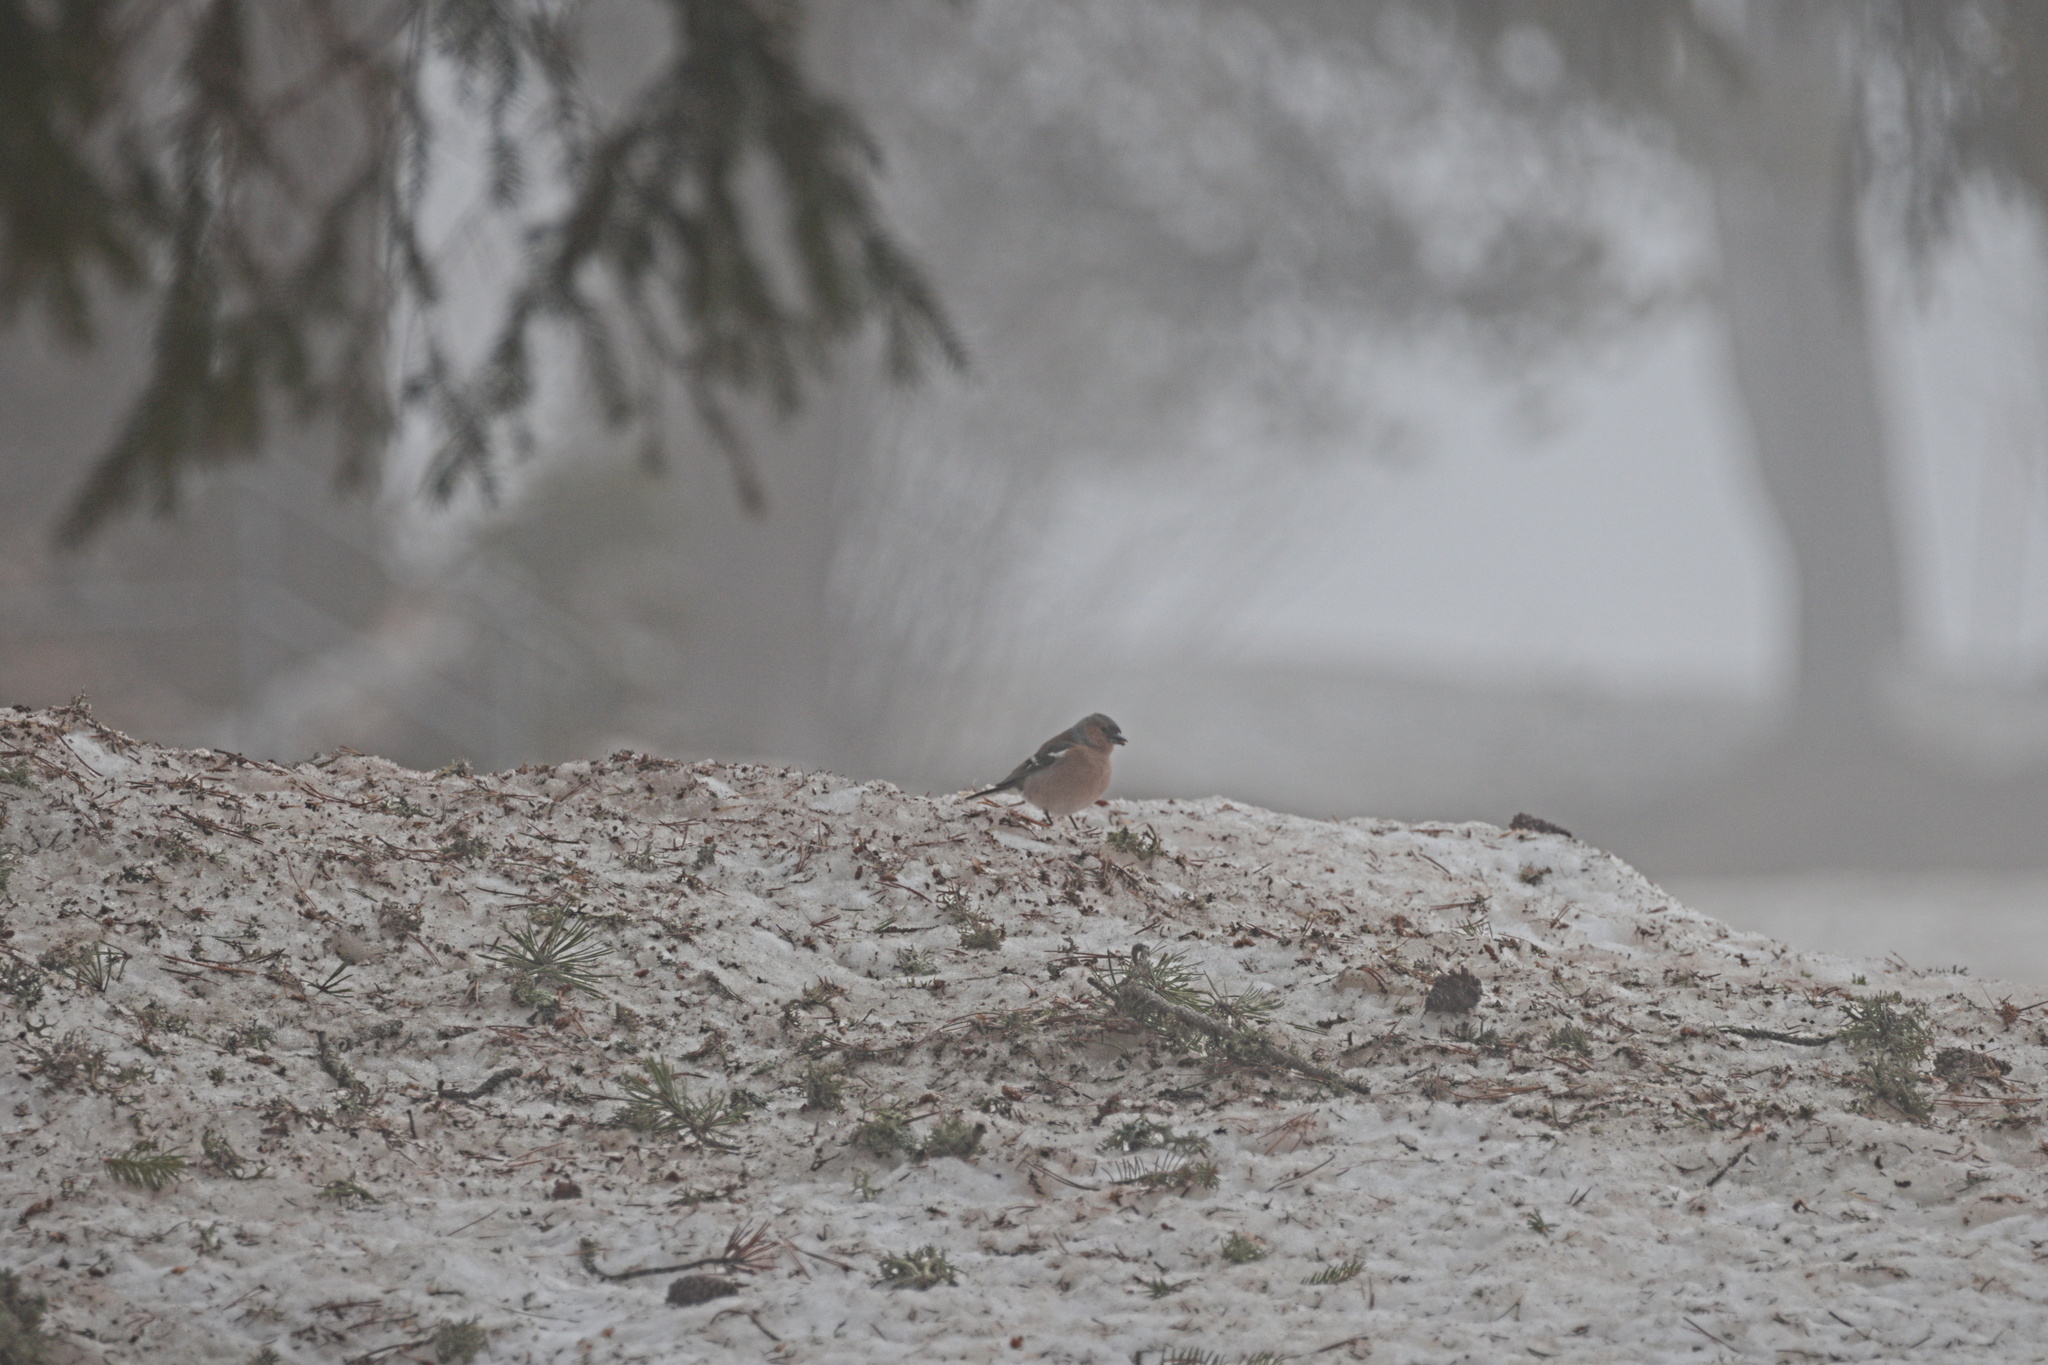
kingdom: Animalia
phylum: Chordata
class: Aves
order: Passeriformes
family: Fringillidae
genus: Fringilla
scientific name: Fringilla coelebs
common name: Common chaffinch
